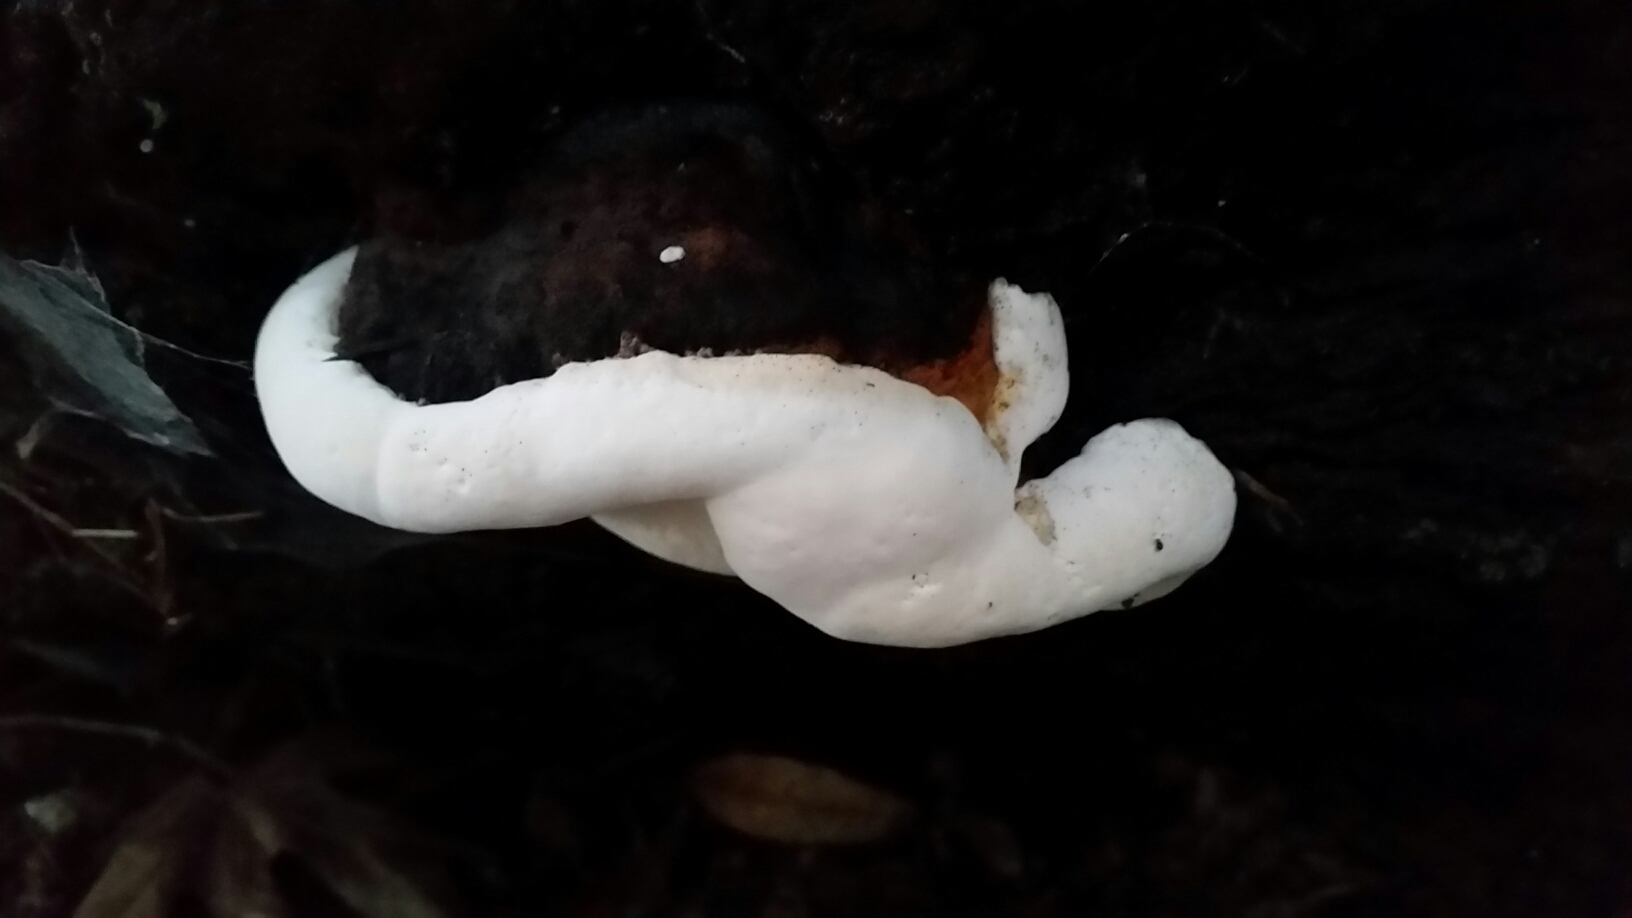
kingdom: Fungi
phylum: Basidiomycota
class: Agaricomycetes
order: Polyporales
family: Fomitopsidaceae
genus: Fomitopsis
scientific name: Fomitopsis mounceae
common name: Northern red belt
